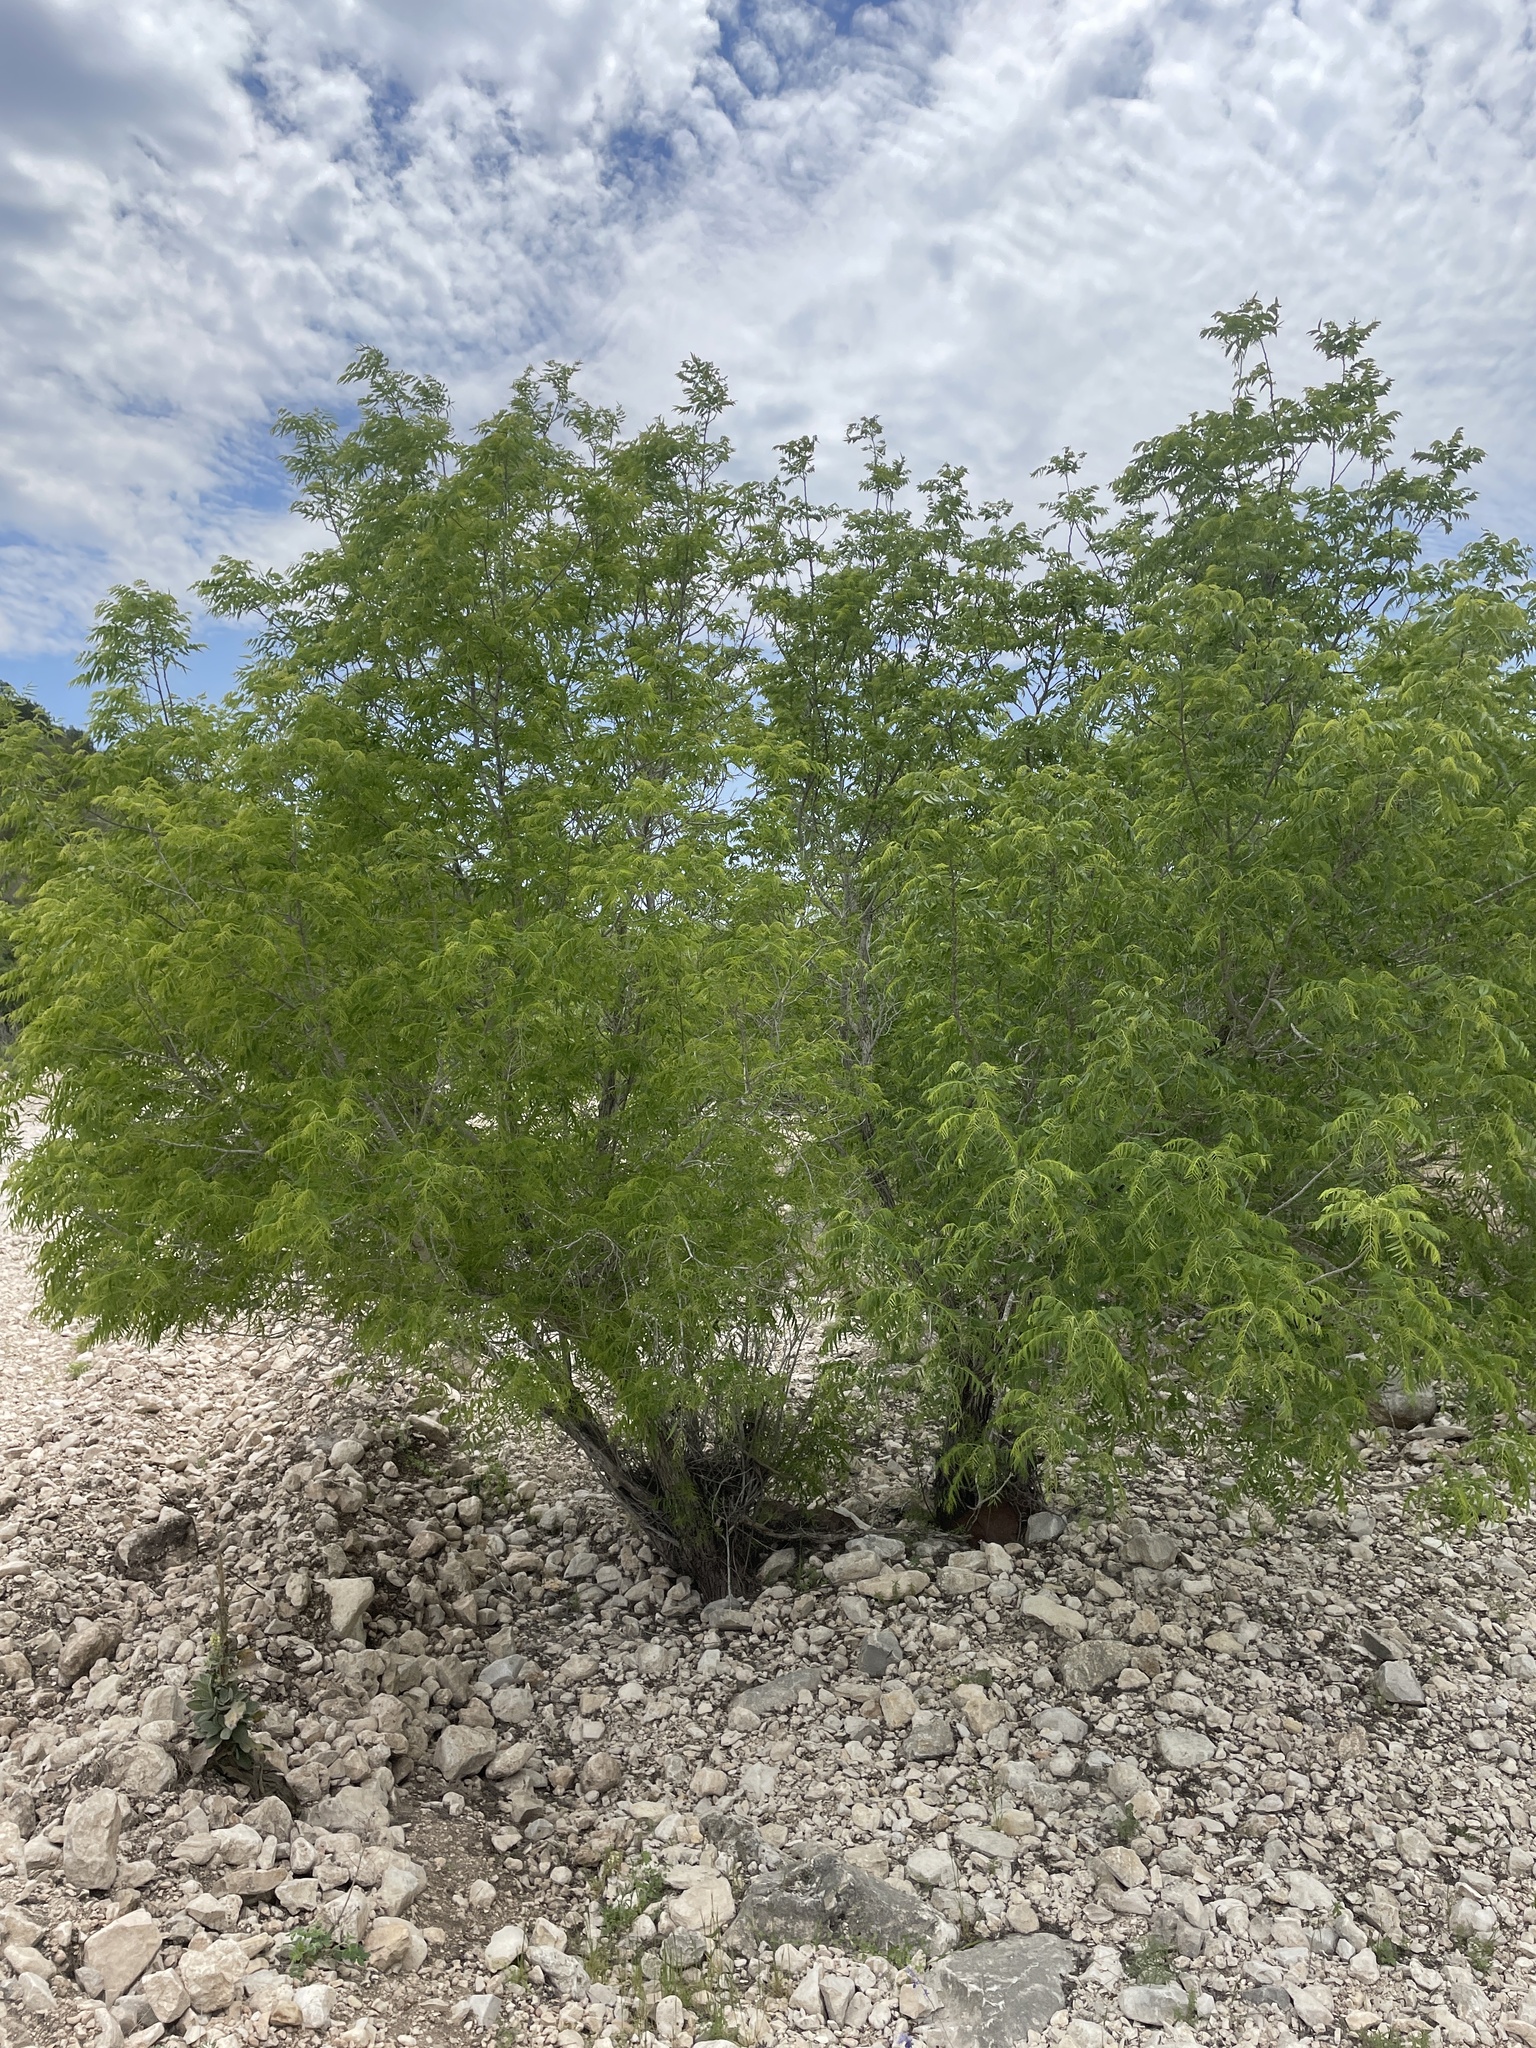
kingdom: Plantae
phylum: Tracheophyta
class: Magnoliopsida
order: Fagales
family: Juglandaceae
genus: Juglans
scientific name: Juglans microcarpa
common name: Texas walnut
